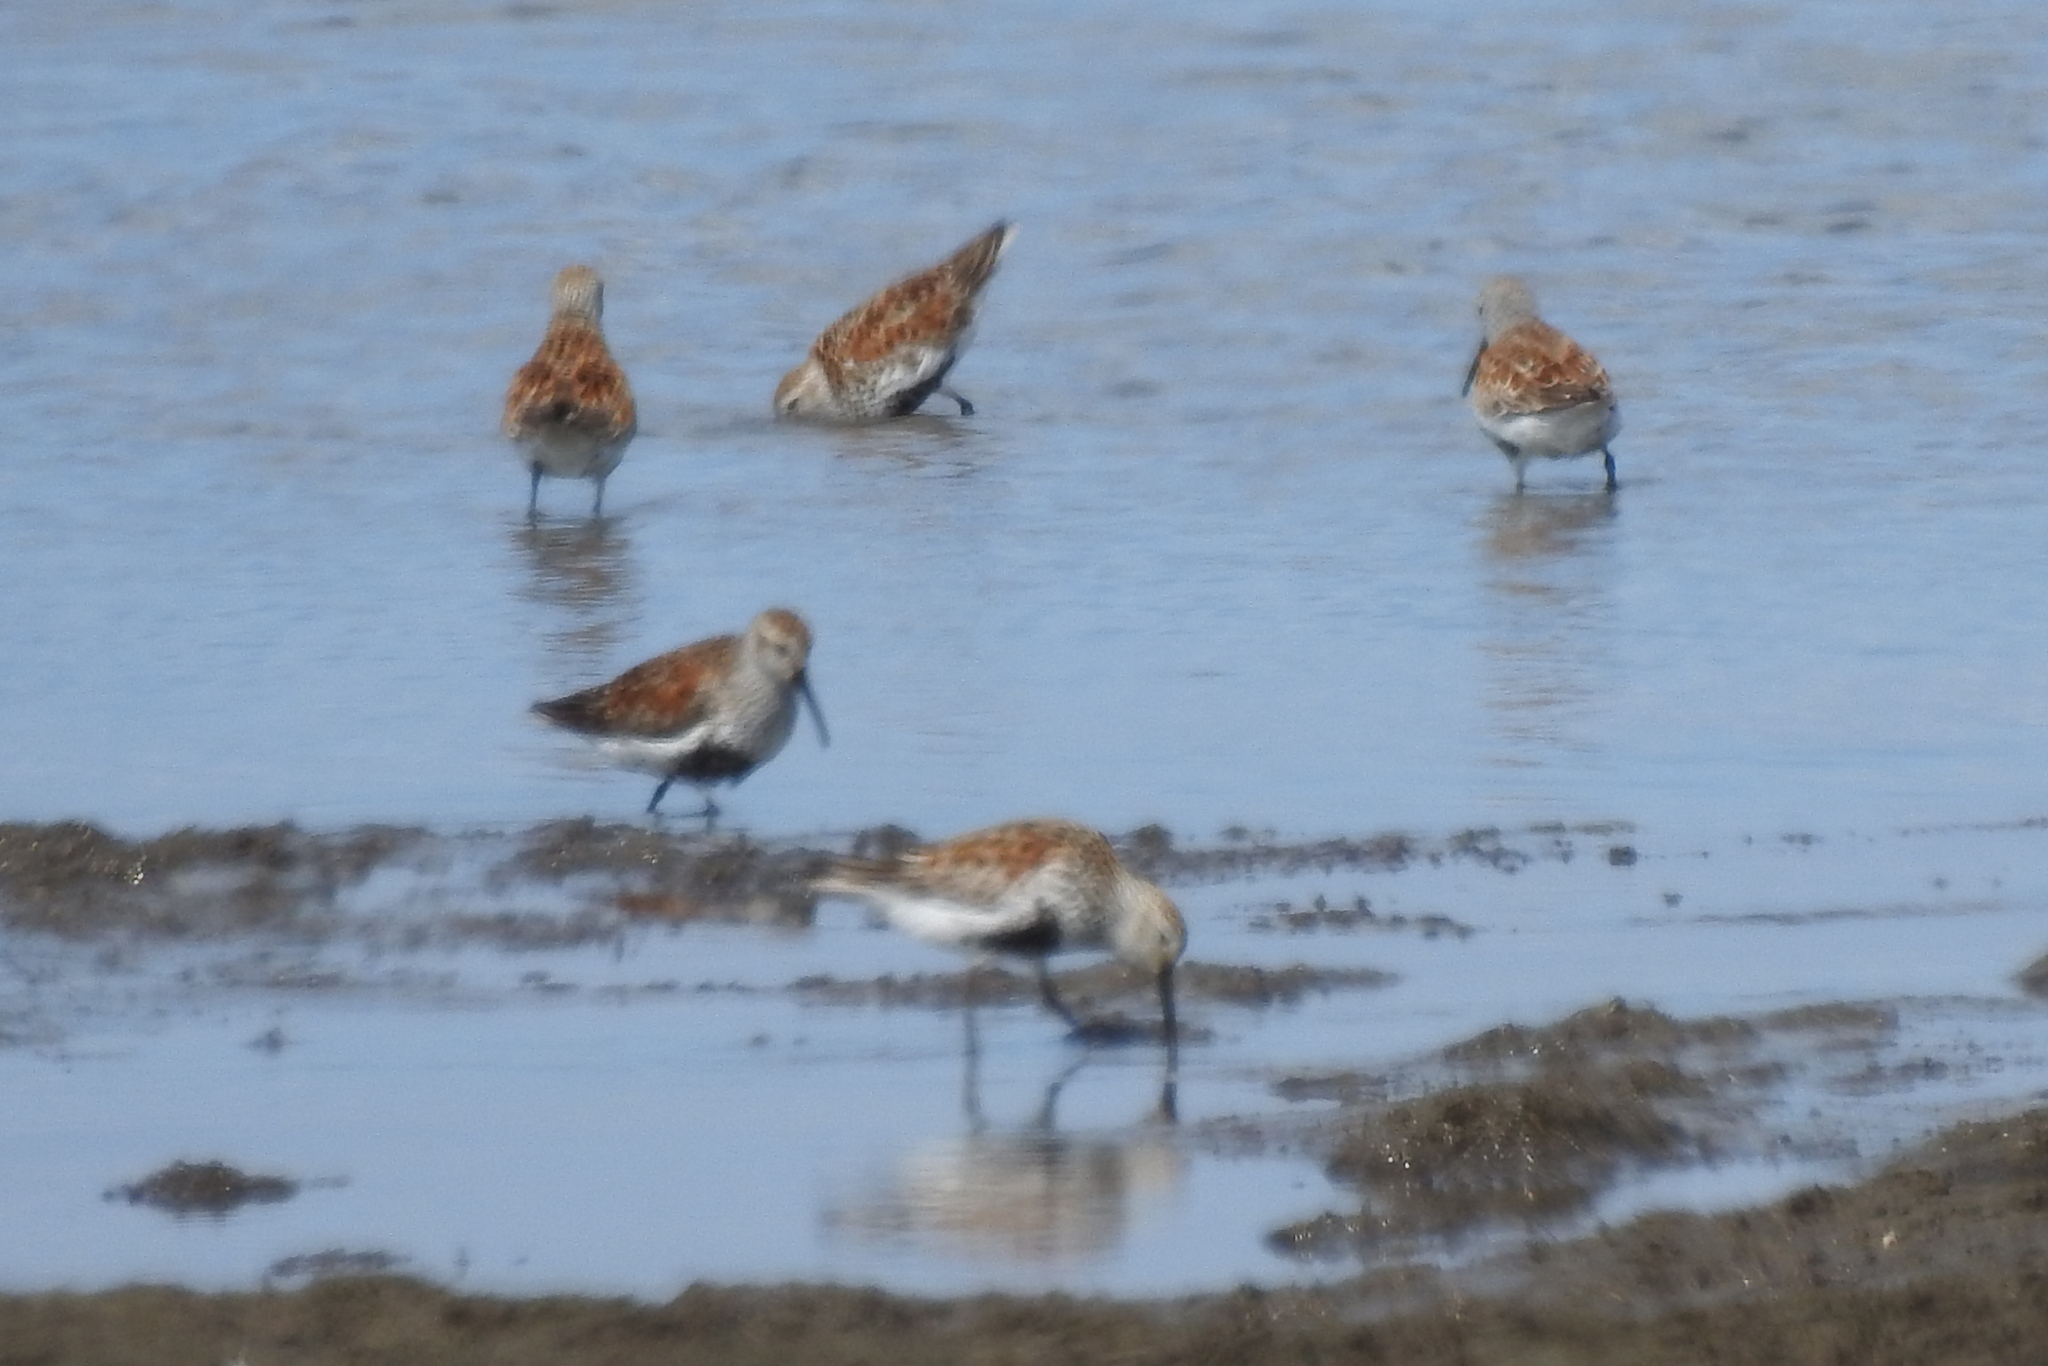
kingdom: Animalia
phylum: Chordata
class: Aves
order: Charadriiformes
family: Scolopacidae
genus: Calidris
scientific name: Calidris alpina
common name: Dunlin
